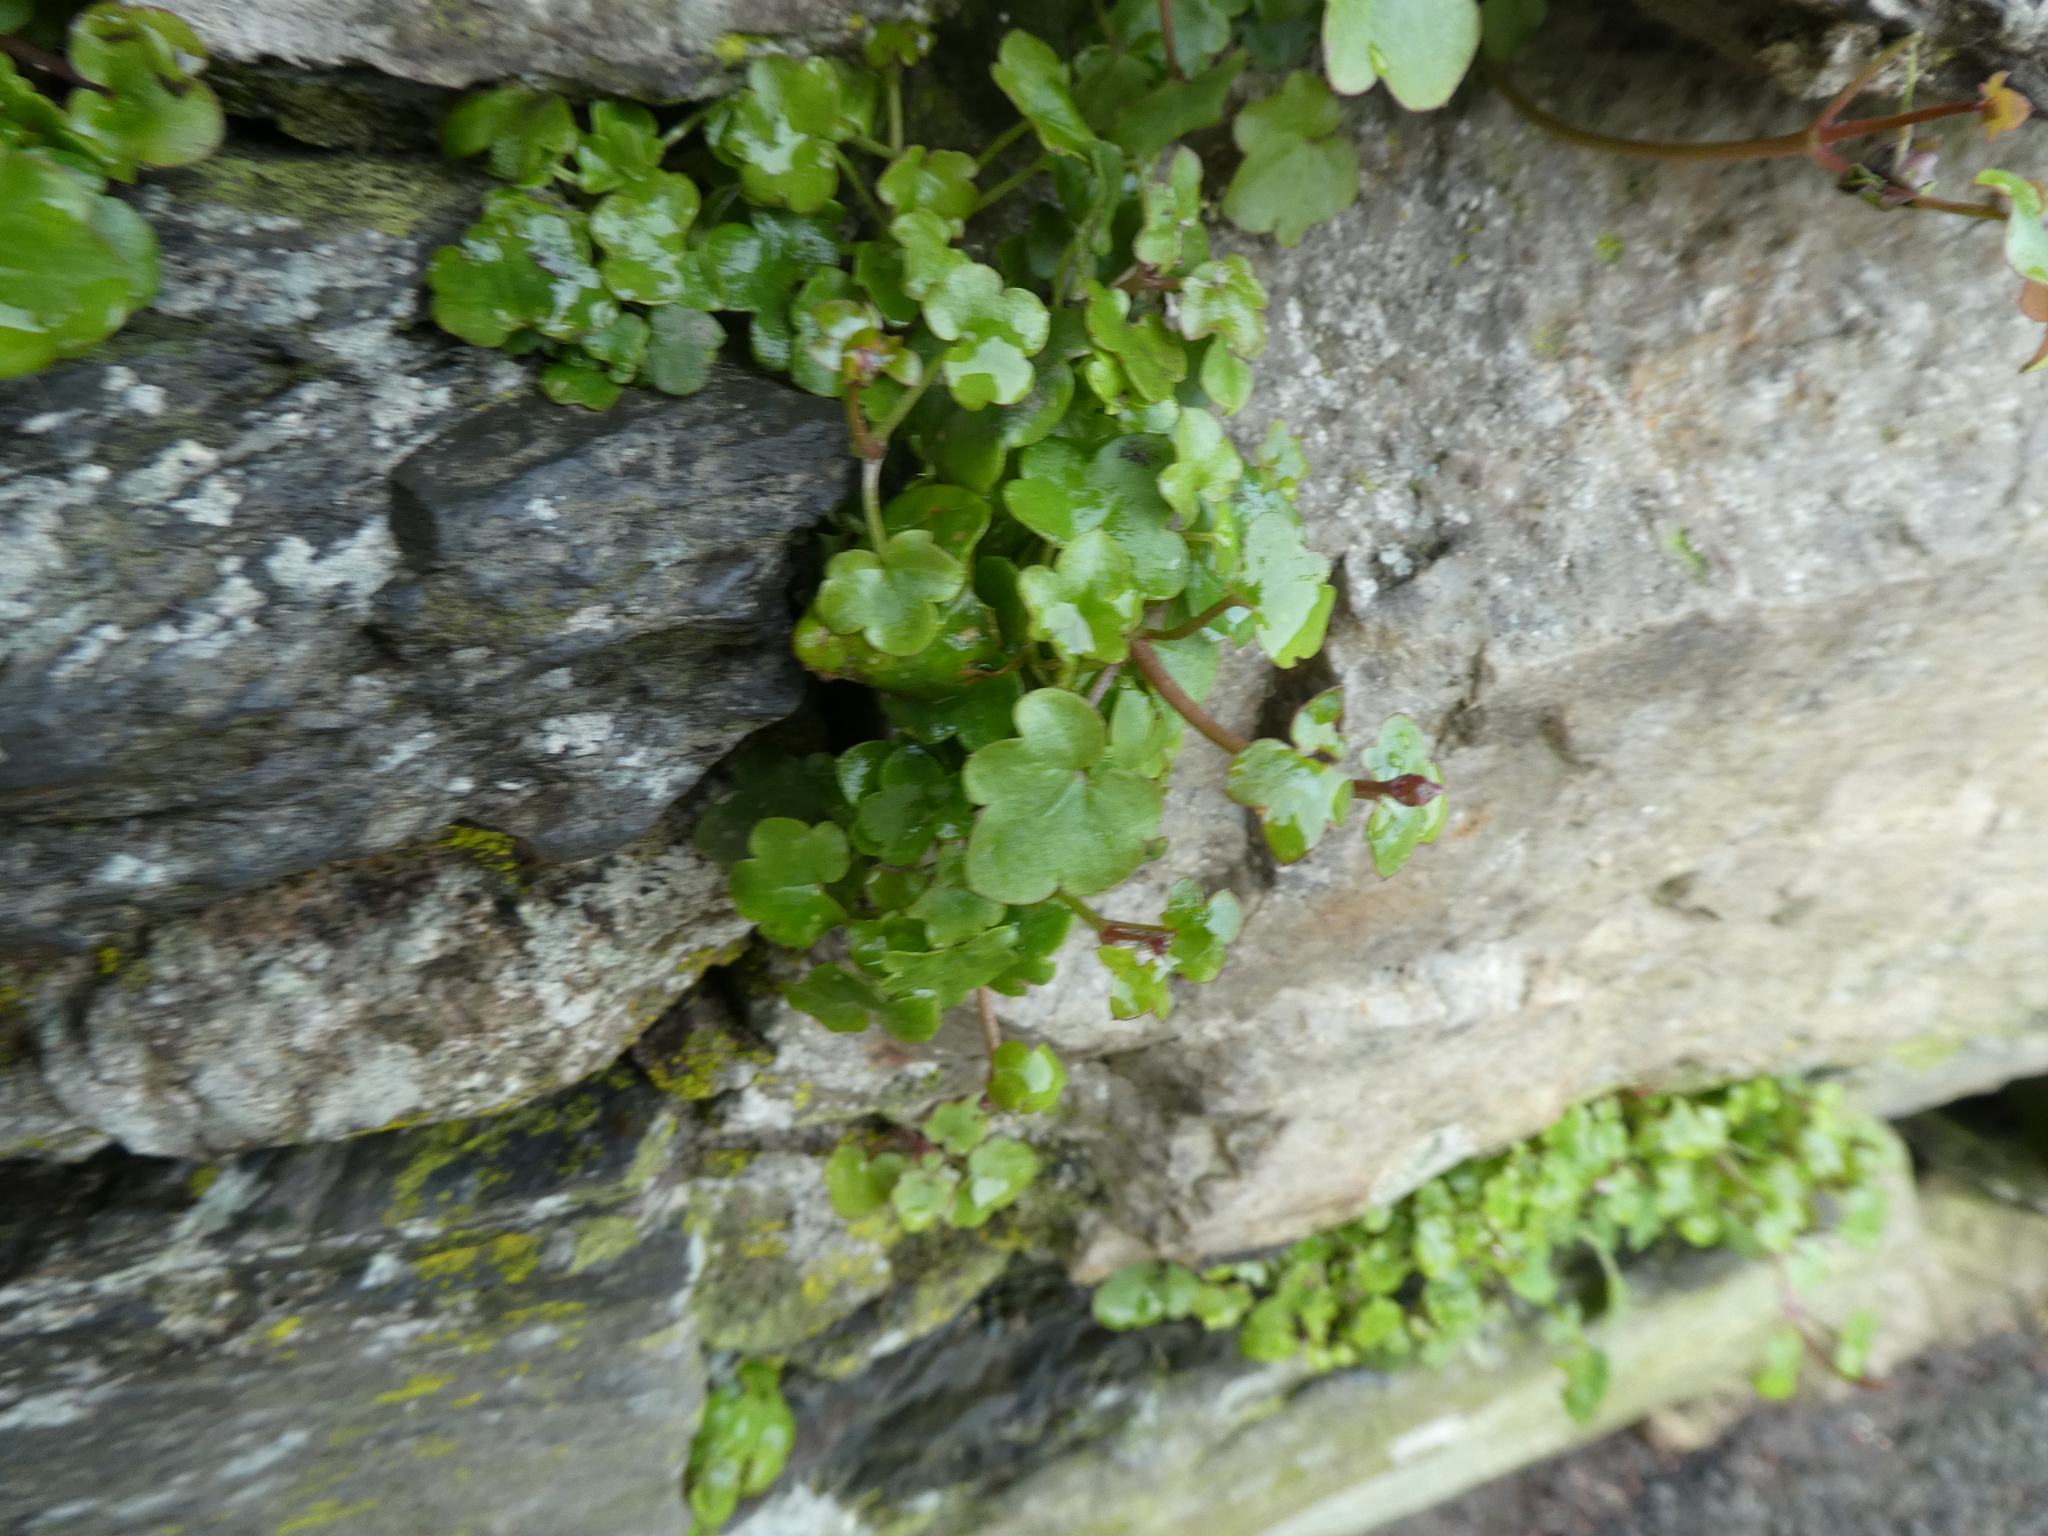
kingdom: Plantae
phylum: Tracheophyta
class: Magnoliopsida
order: Lamiales
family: Plantaginaceae
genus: Cymbalaria
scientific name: Cymbalaria muralis
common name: Ivy-leaved toadflax
